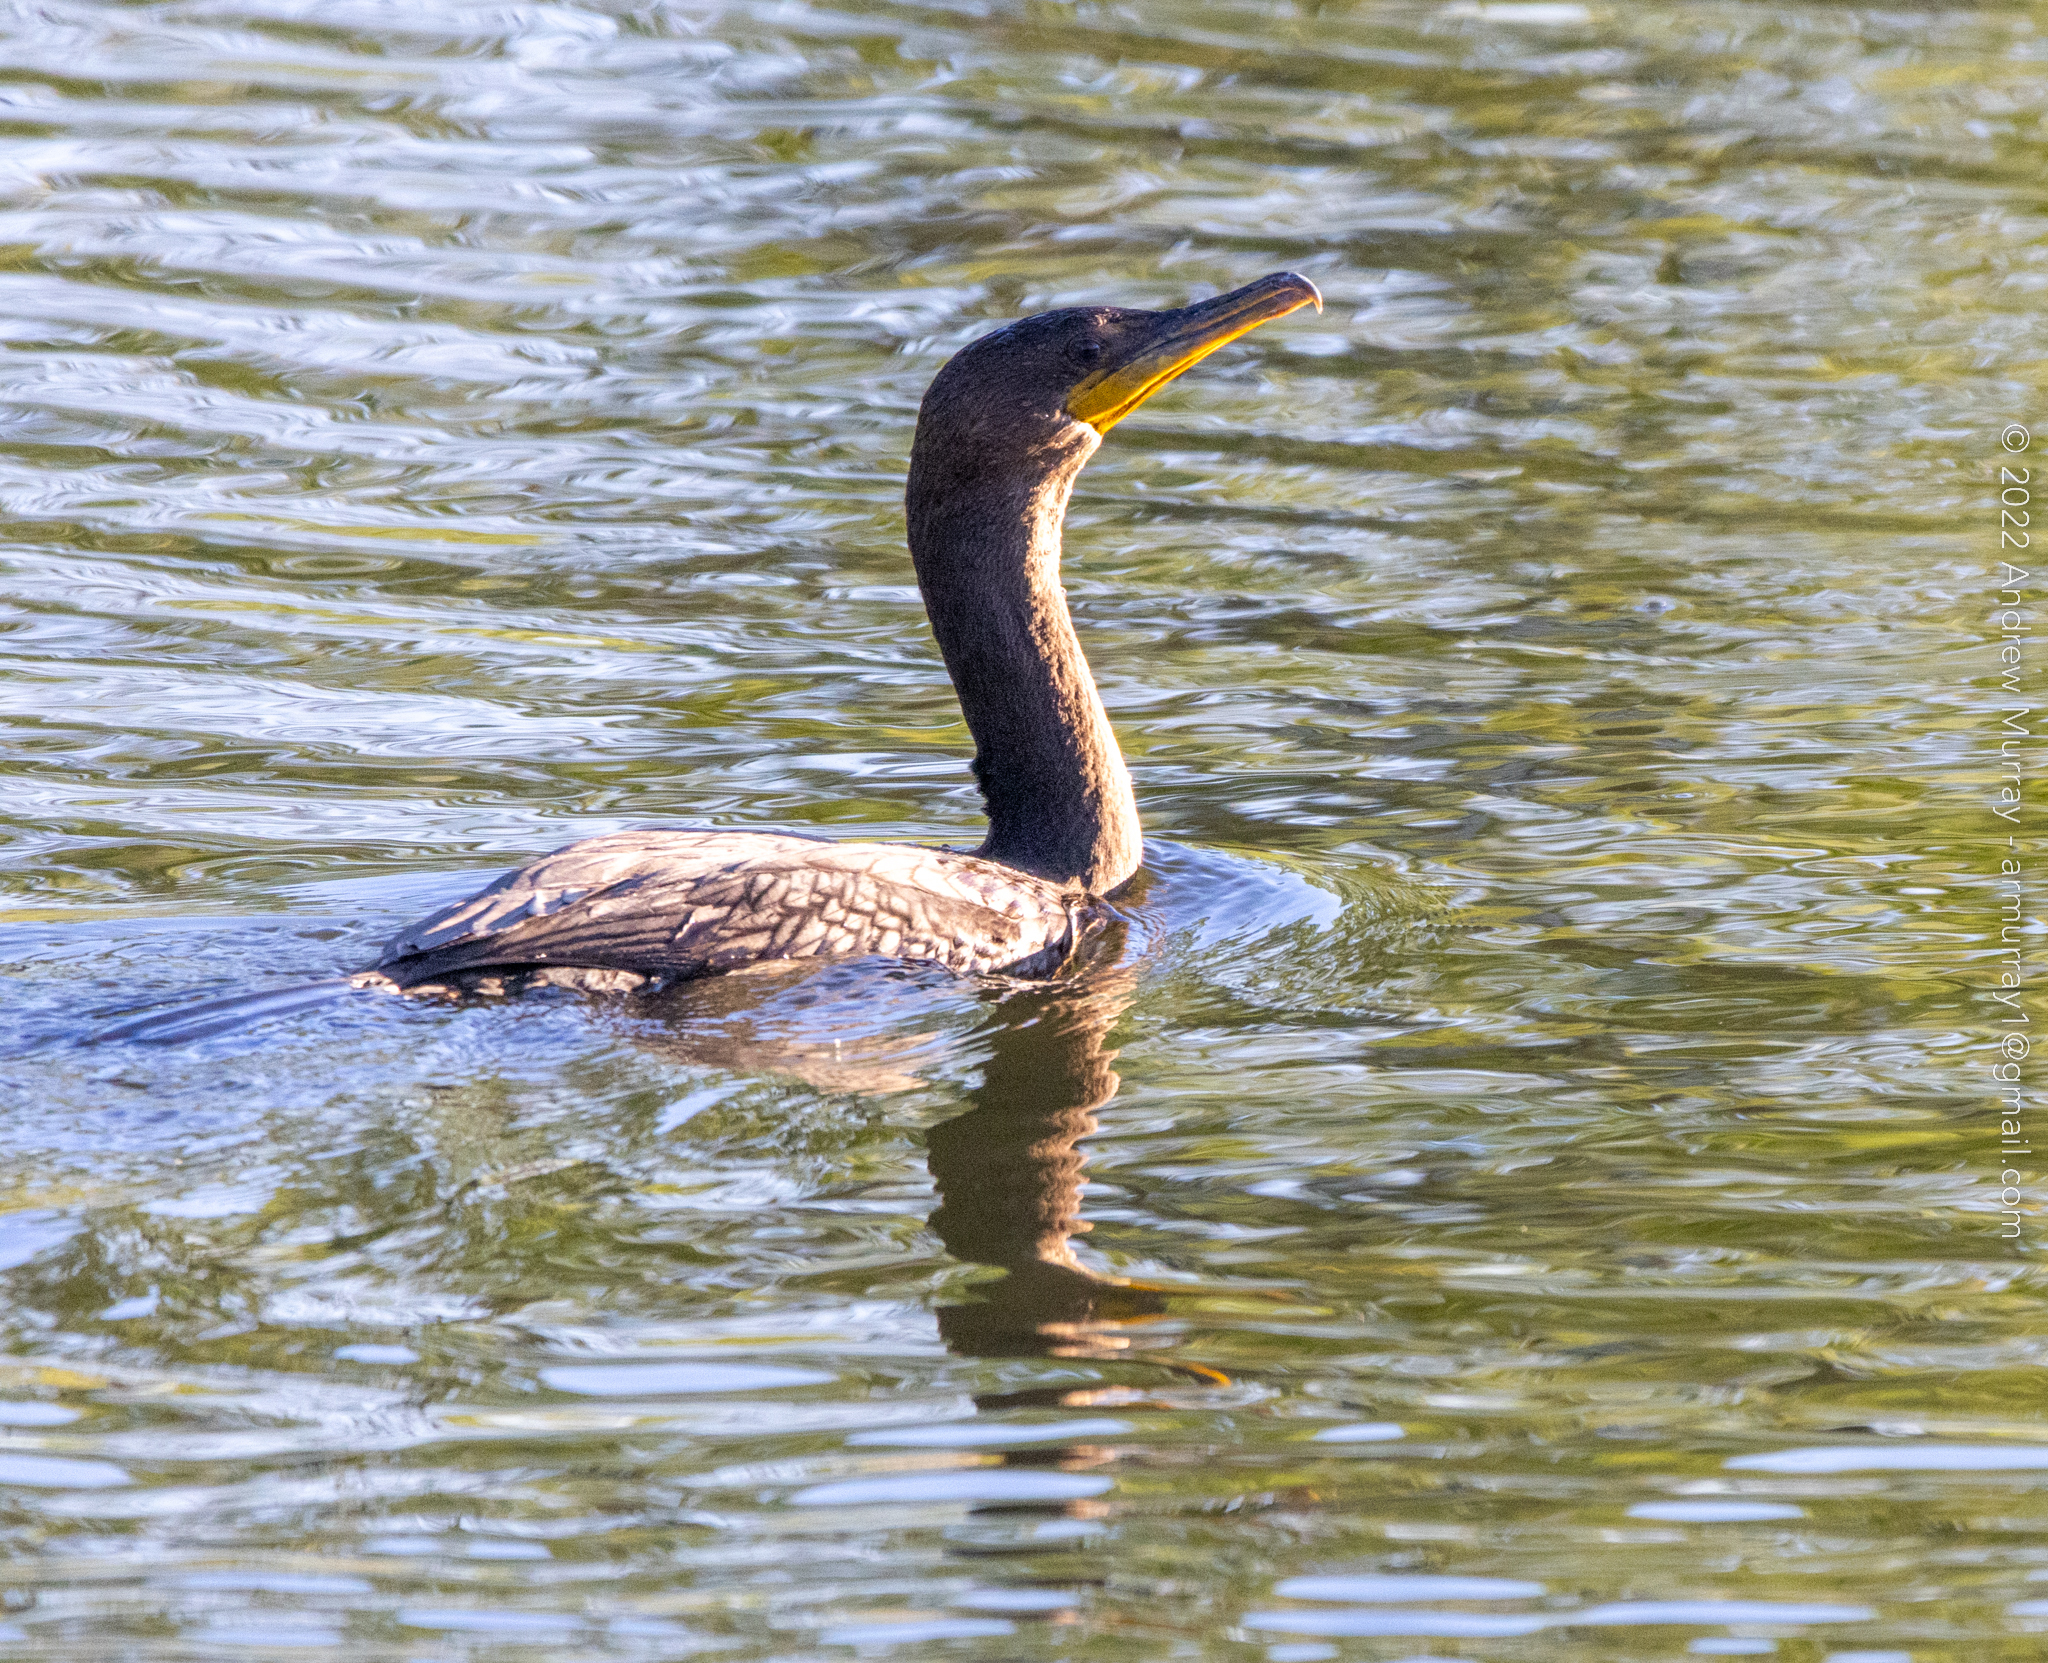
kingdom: Animalia
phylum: Chordata
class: Aves
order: Suliformes
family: Phalacrocoracidae
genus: Phalacrocorax
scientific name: Phalacrocorax auritus
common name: Double-crested cormorant
